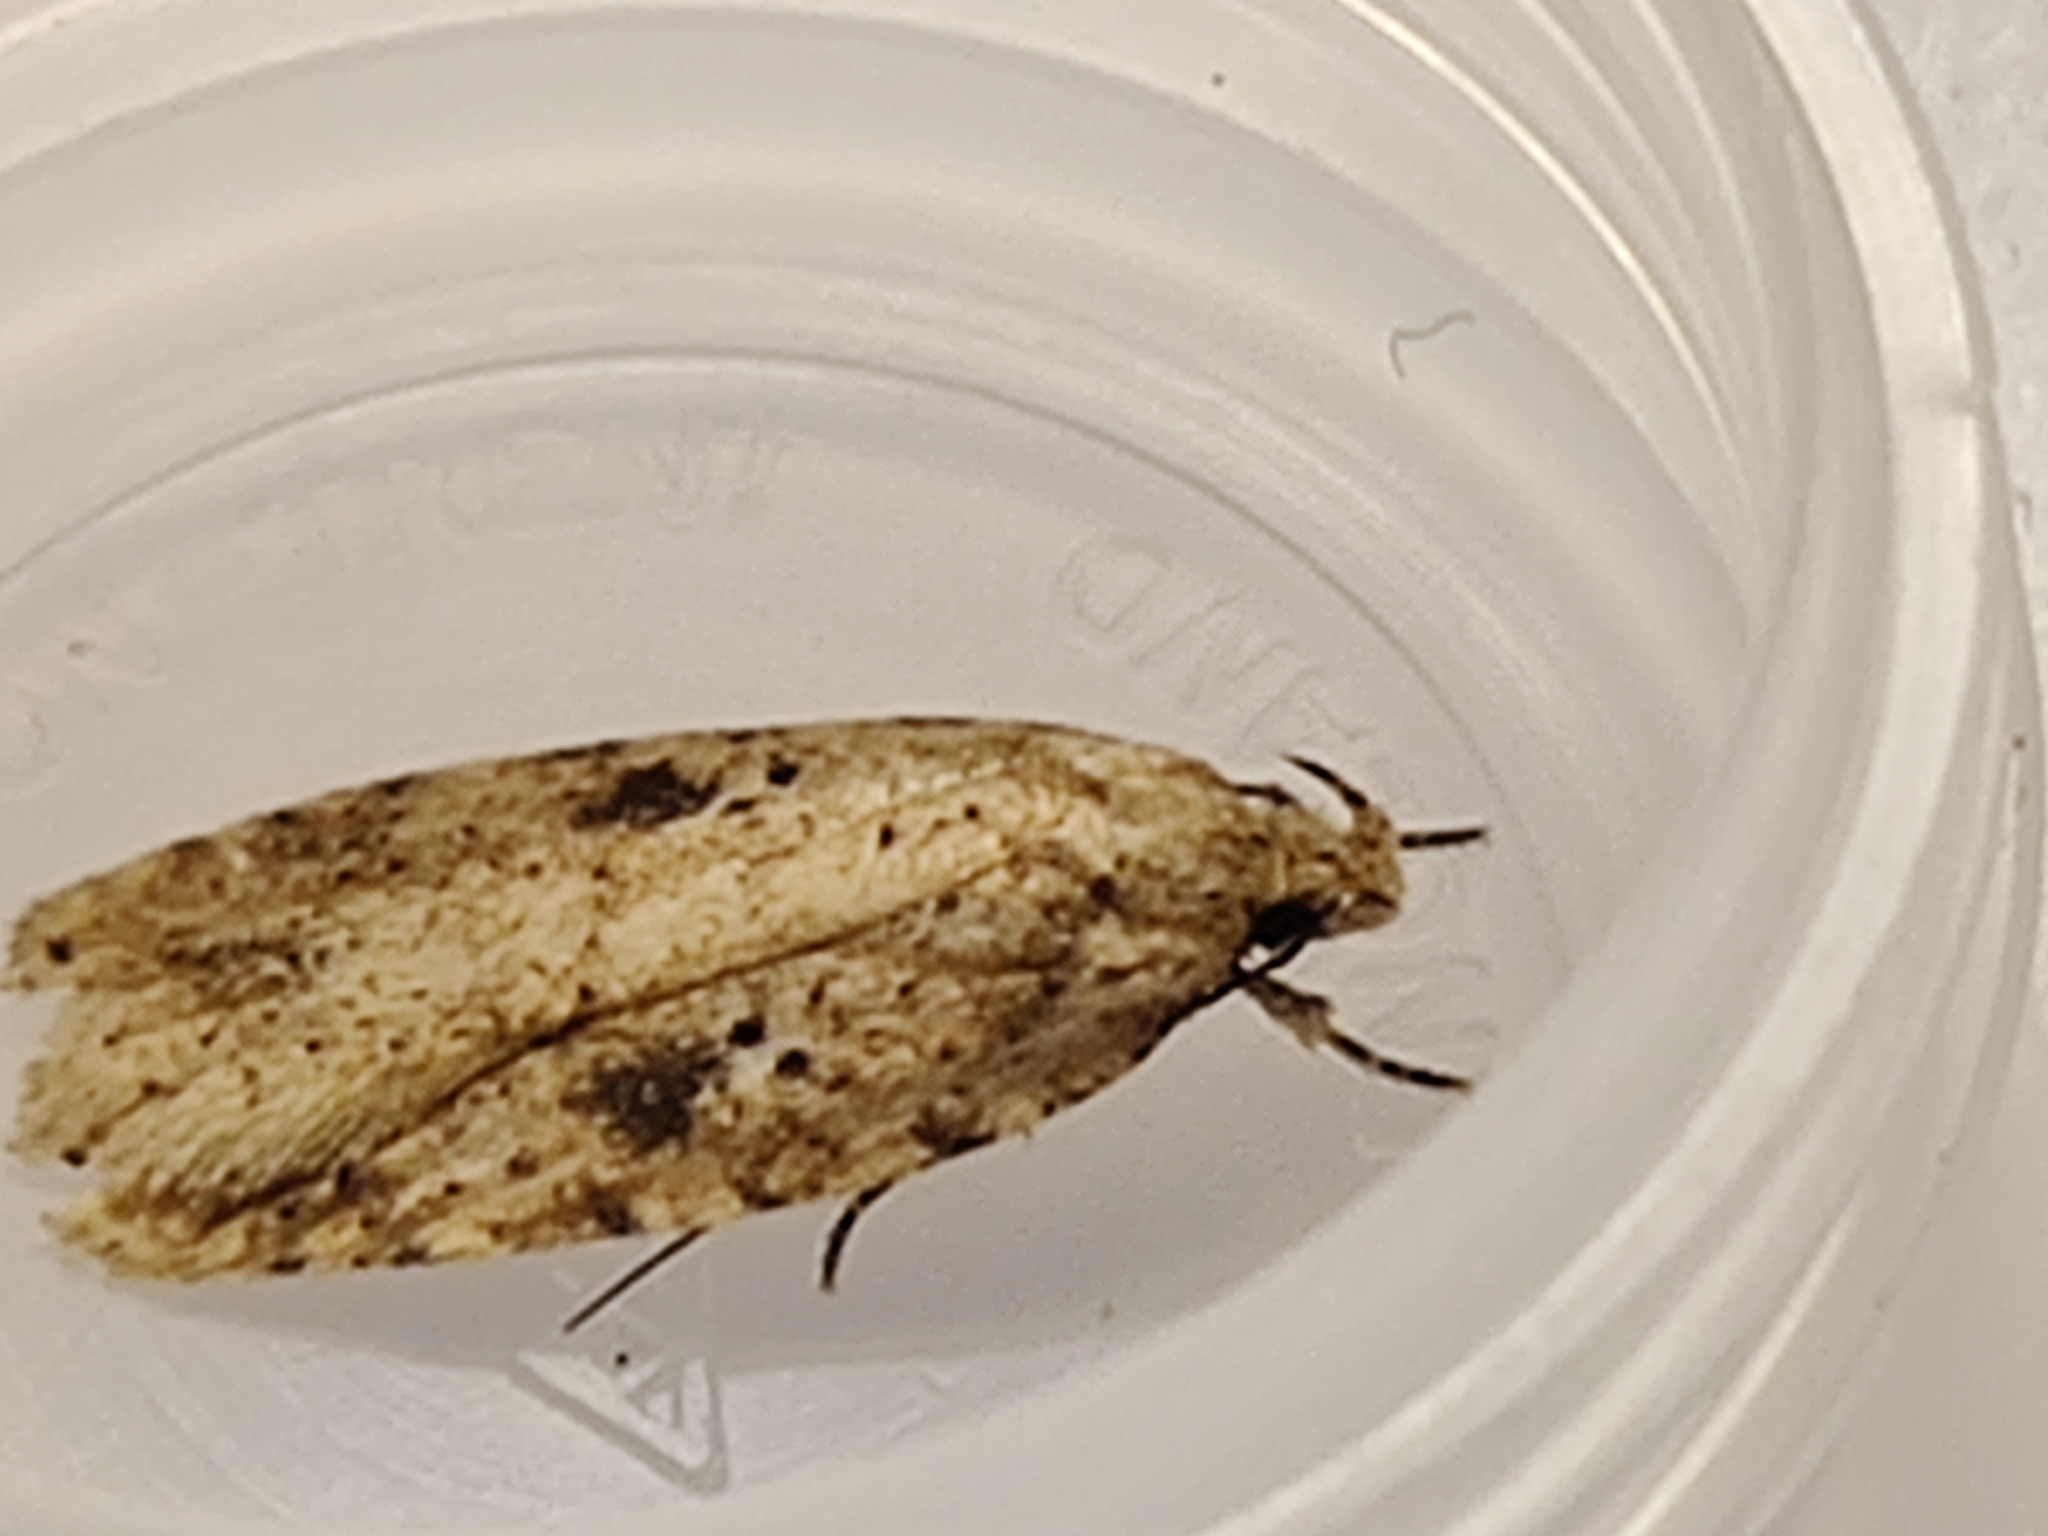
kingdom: Animalia
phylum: Arthropoda
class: Insecta
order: Lepidoptera
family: Depressariidae
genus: Agonopterix
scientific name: Agonopterix arenella
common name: Brindled flat-body
